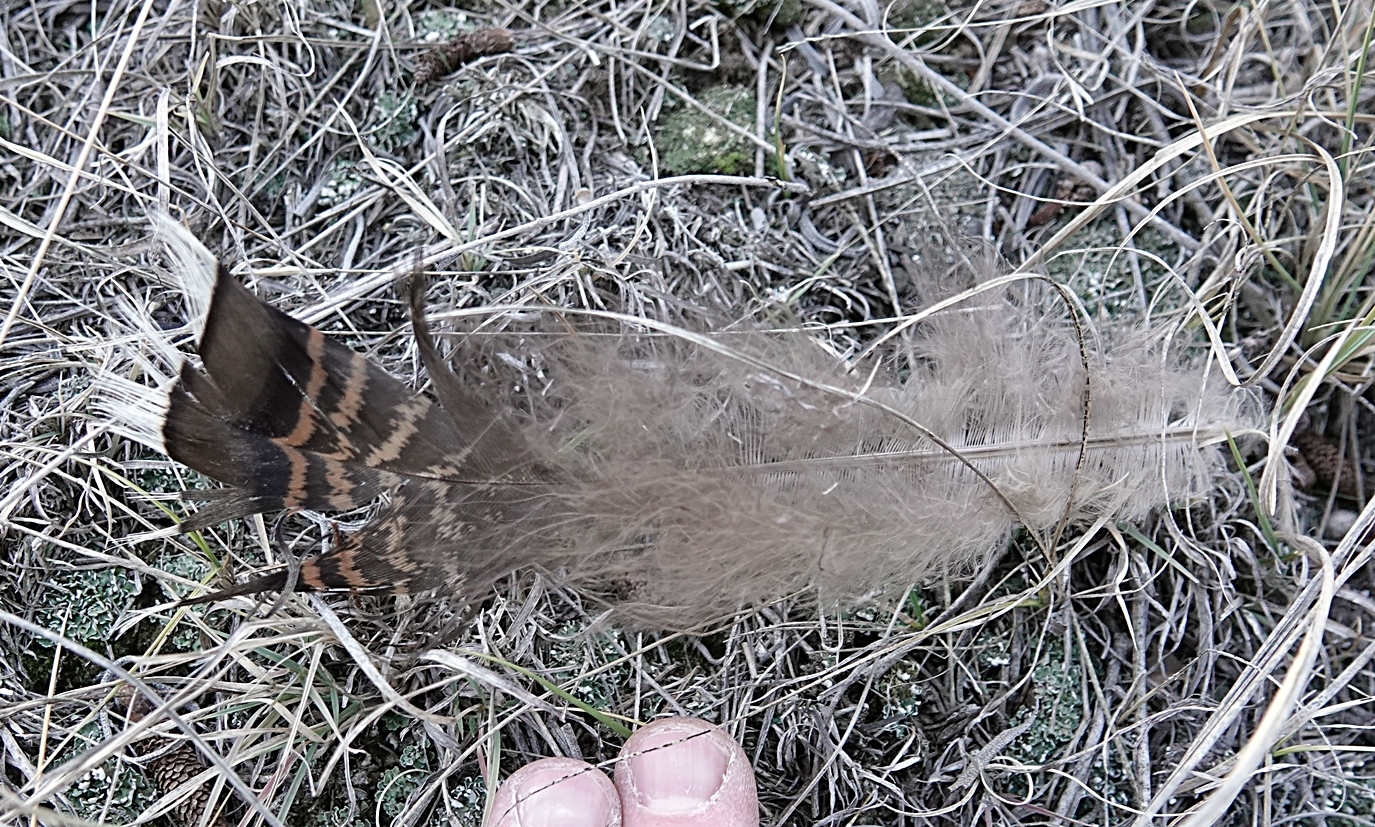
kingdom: Animalia
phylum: Chordata
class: Aves
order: Galliformes
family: Phasianidae
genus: Meleagris
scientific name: Meleagris gallopavo
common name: Wild turkey
